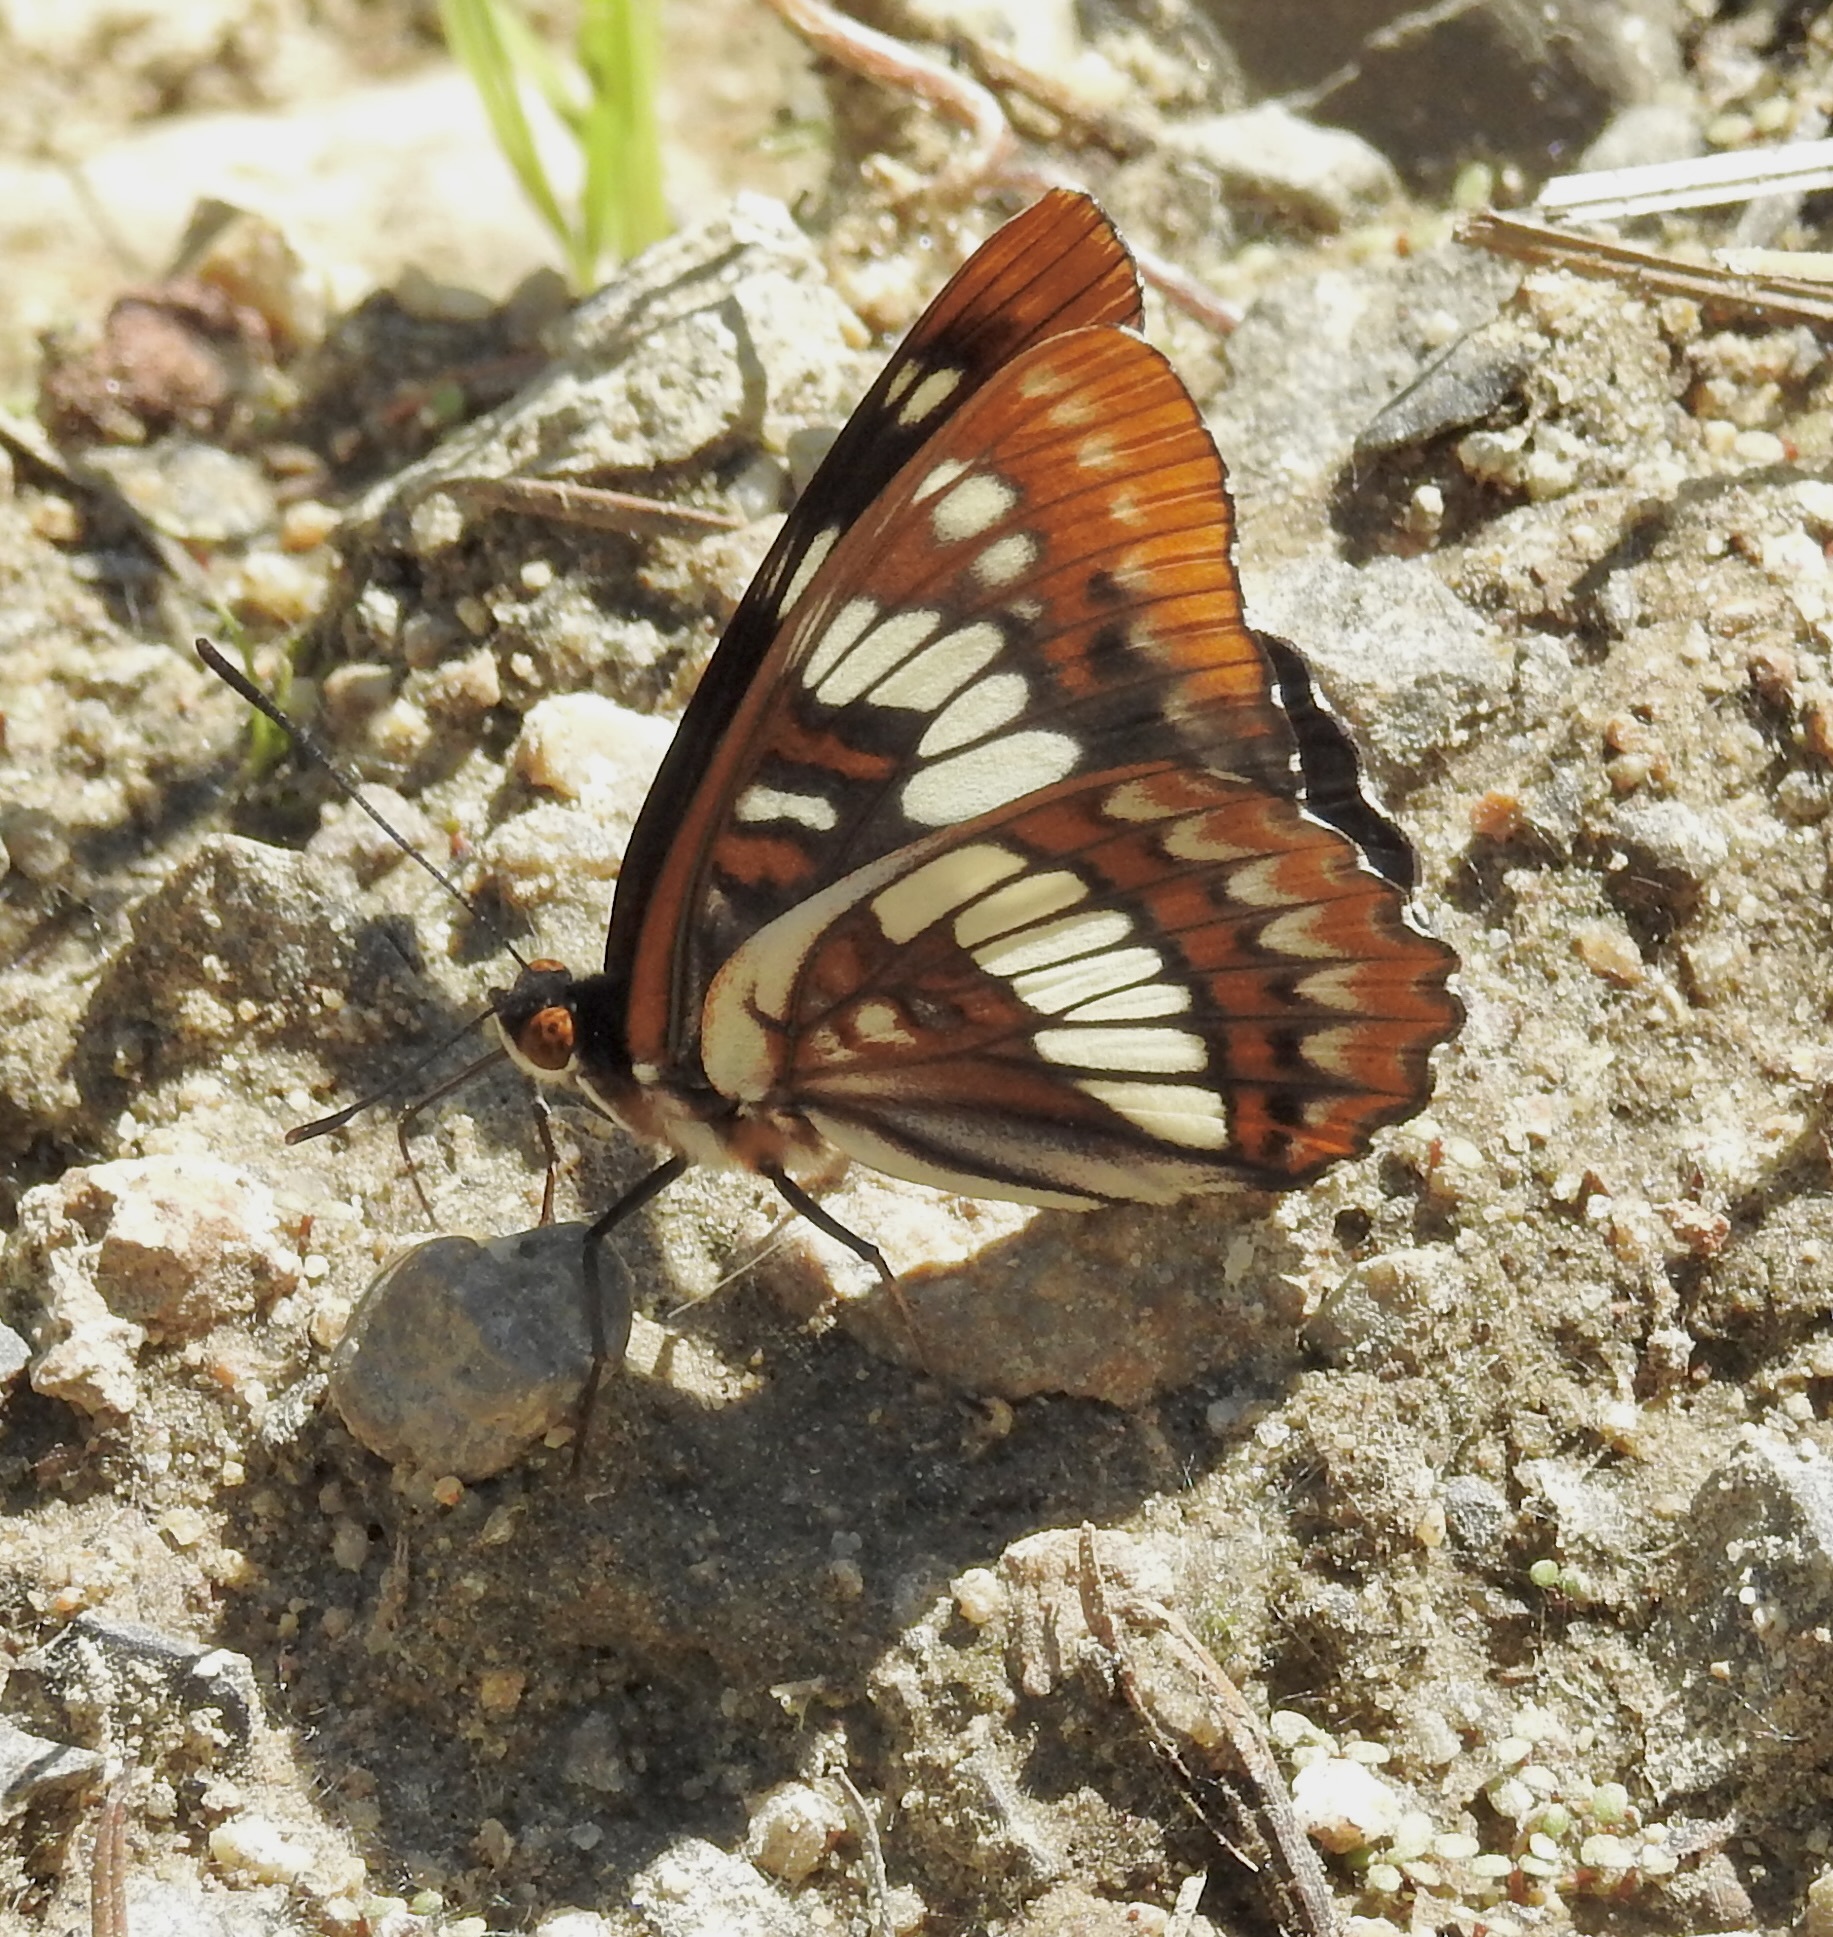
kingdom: Animalia
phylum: Arthropoda
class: Insecta
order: Lepidoptera
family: Nymphalidae
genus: Limenitis
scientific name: Limenitis lorquini
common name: Lorquin's admiral
